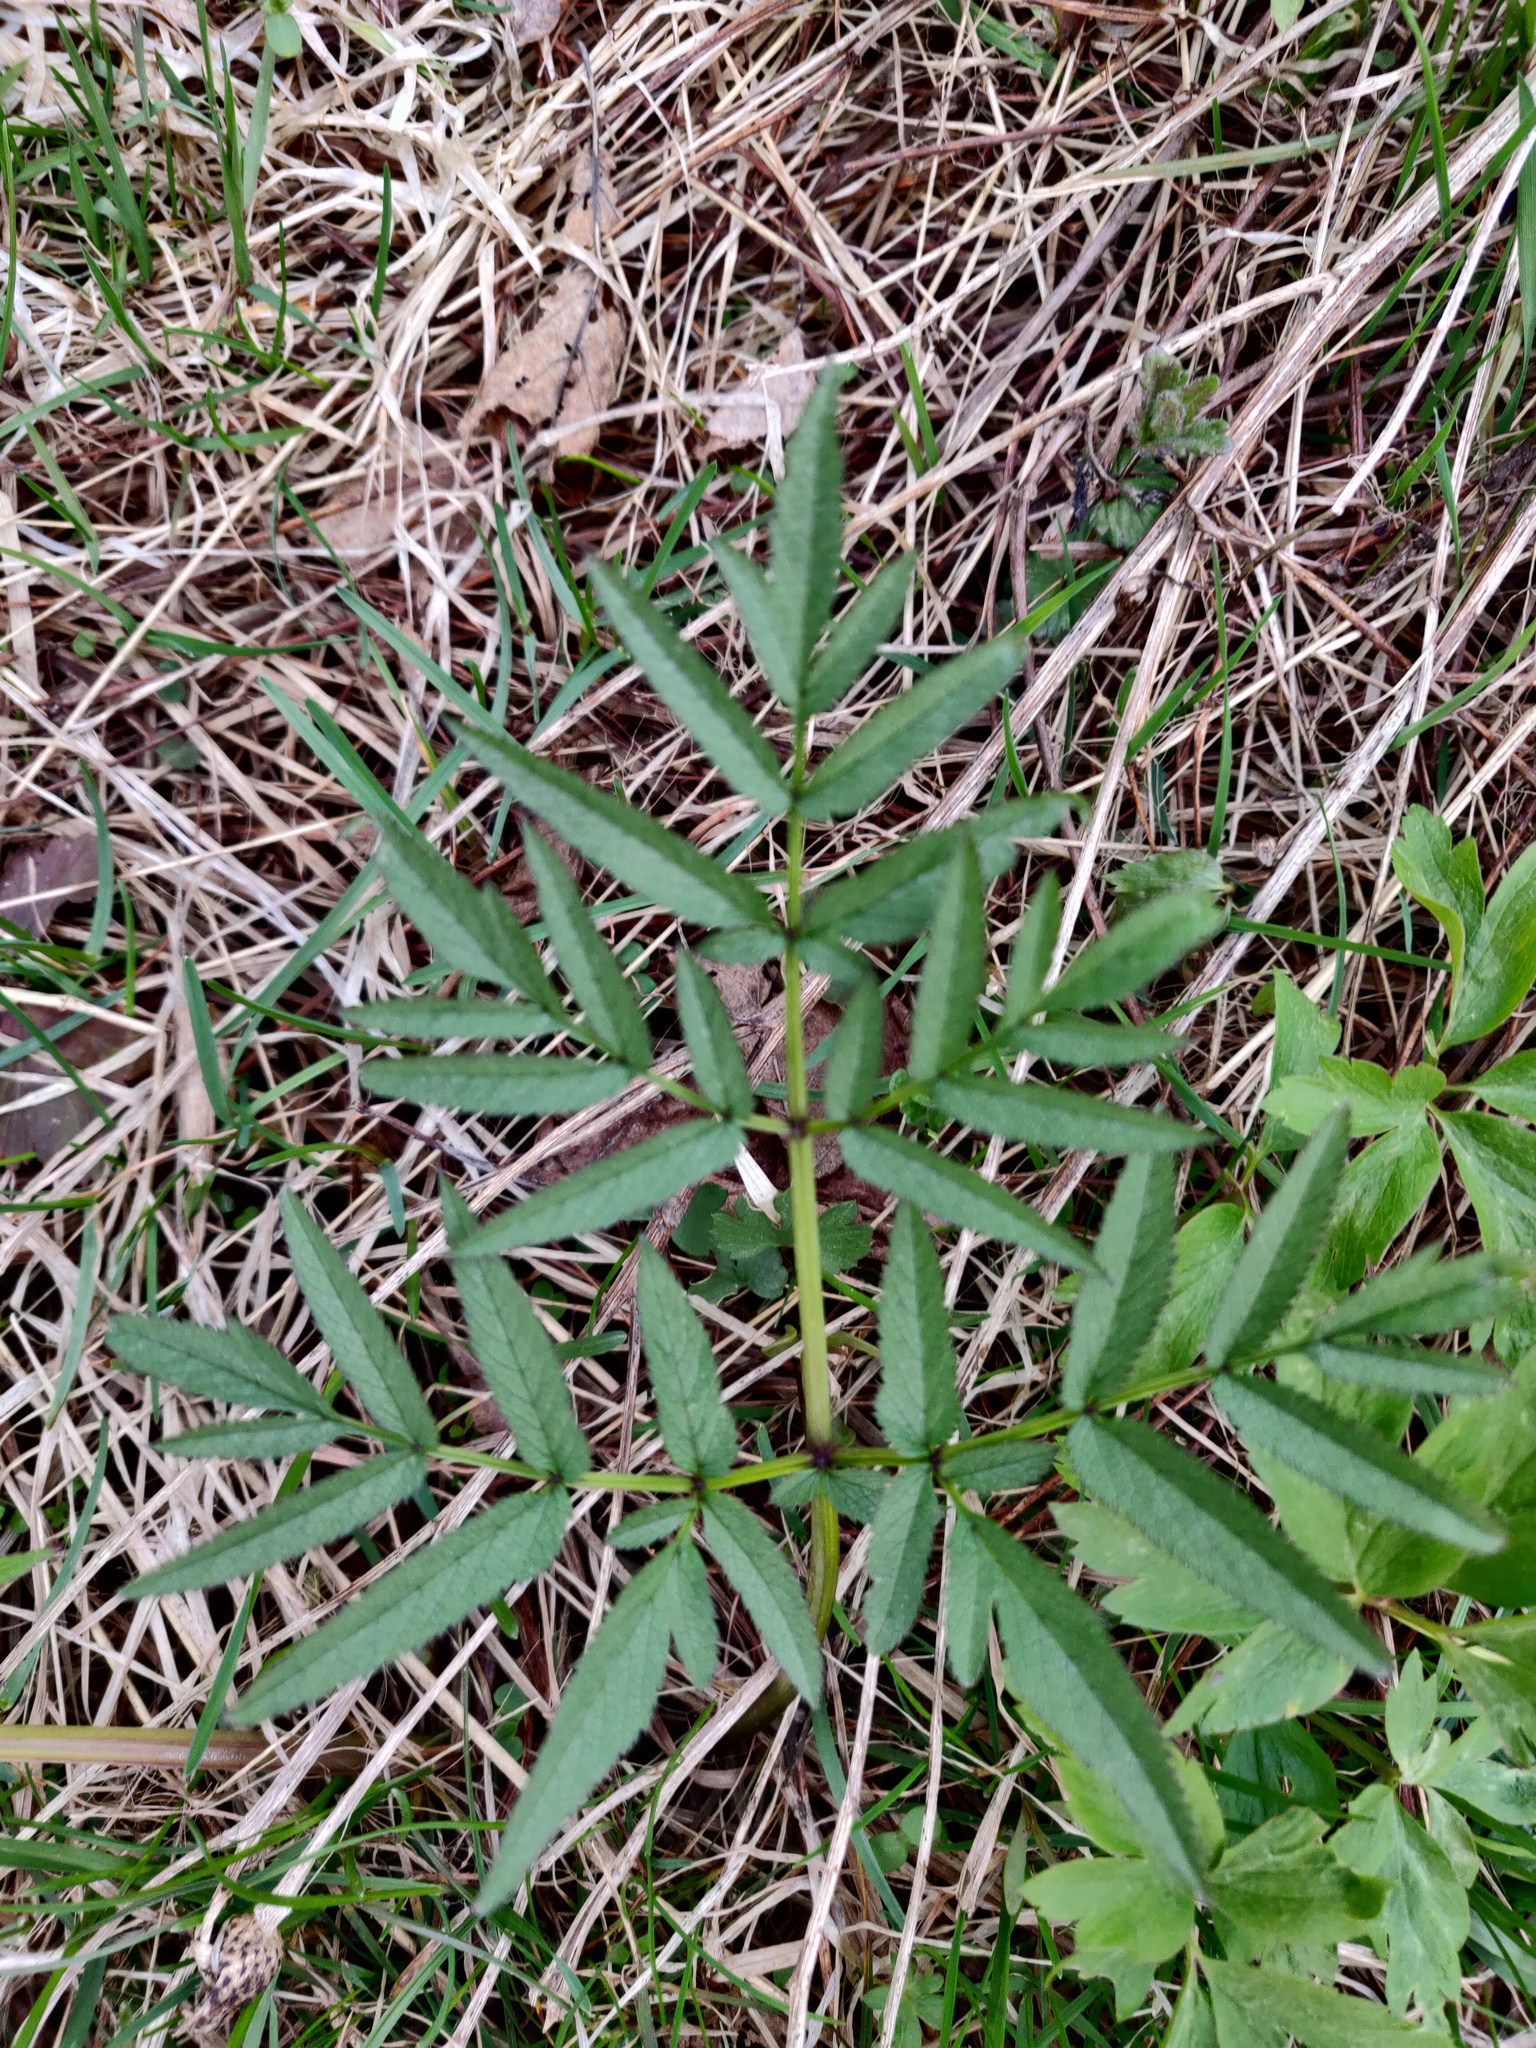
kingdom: Plantae
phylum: Tracheophyta
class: Magnoliopsida
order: Apiales
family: Apiaceae
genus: Angelica
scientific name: Angelica sylvestris
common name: Wild angelica
